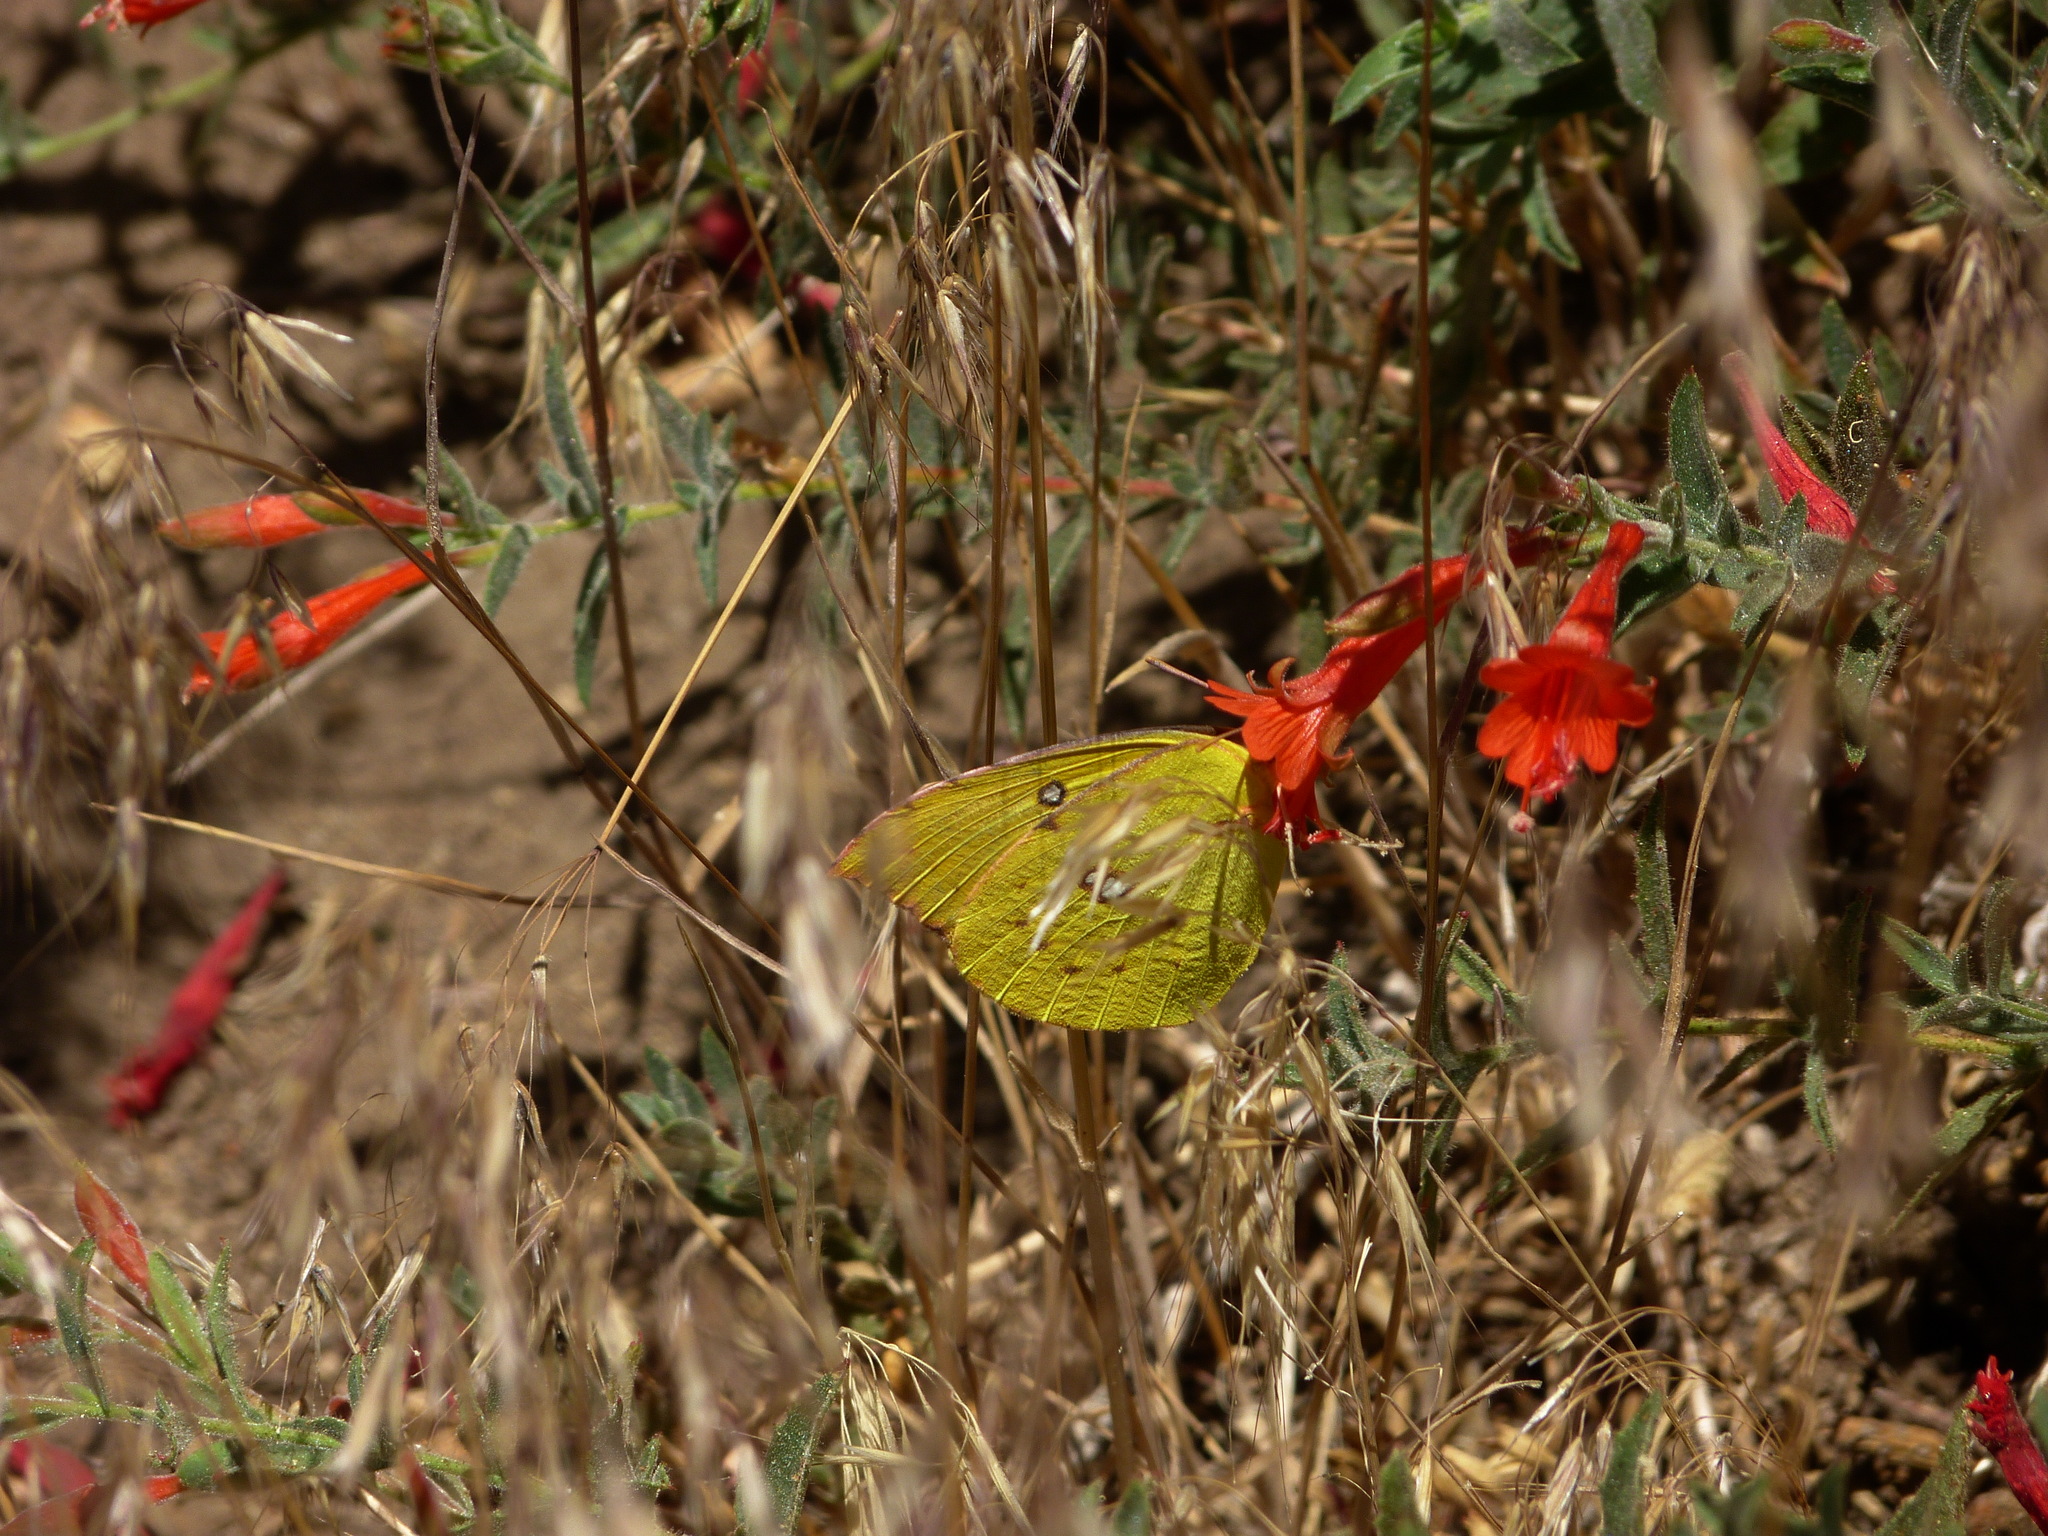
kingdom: Animalia
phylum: Arthropoda
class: Insecta
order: Lepidoptera
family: Pieridae
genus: Zerene
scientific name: Zerene eurydice
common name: California dogface
